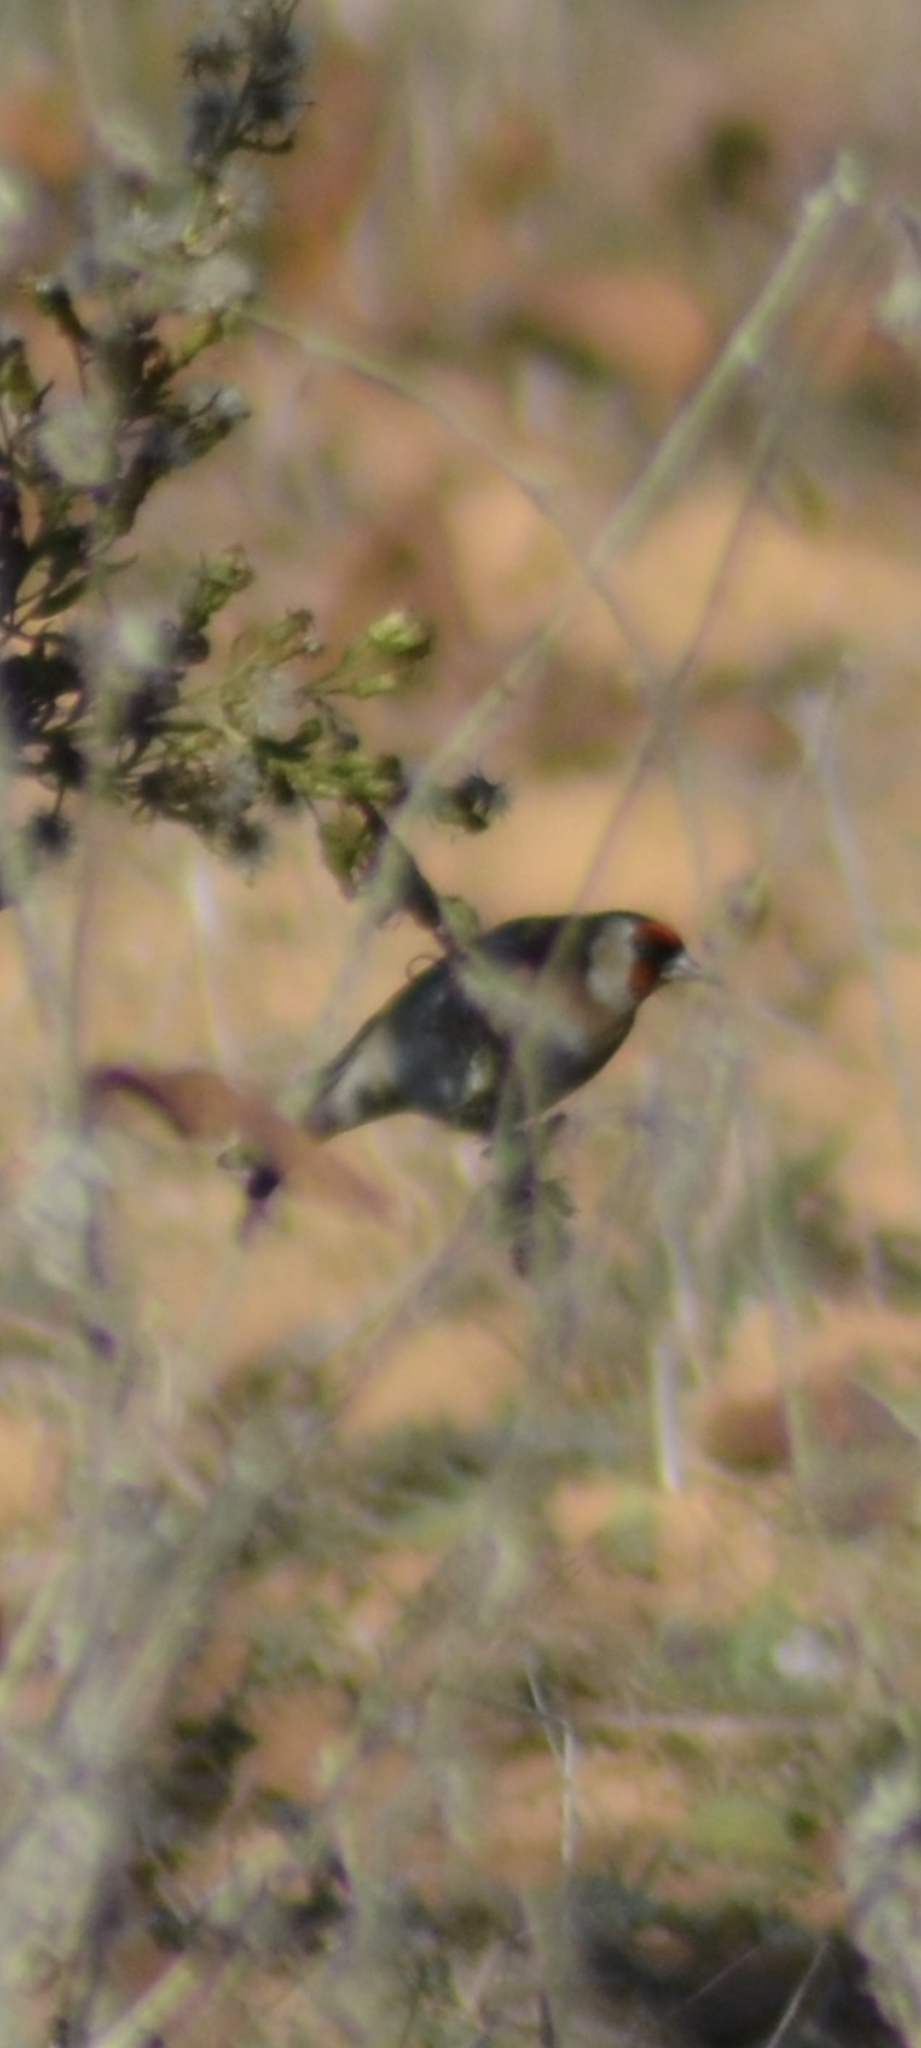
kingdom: Animalia
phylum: Chordata
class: Aves
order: Passeriformes
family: Fringillidae
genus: Carduelis
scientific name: Carduelis carduelis
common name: European goldfinch
